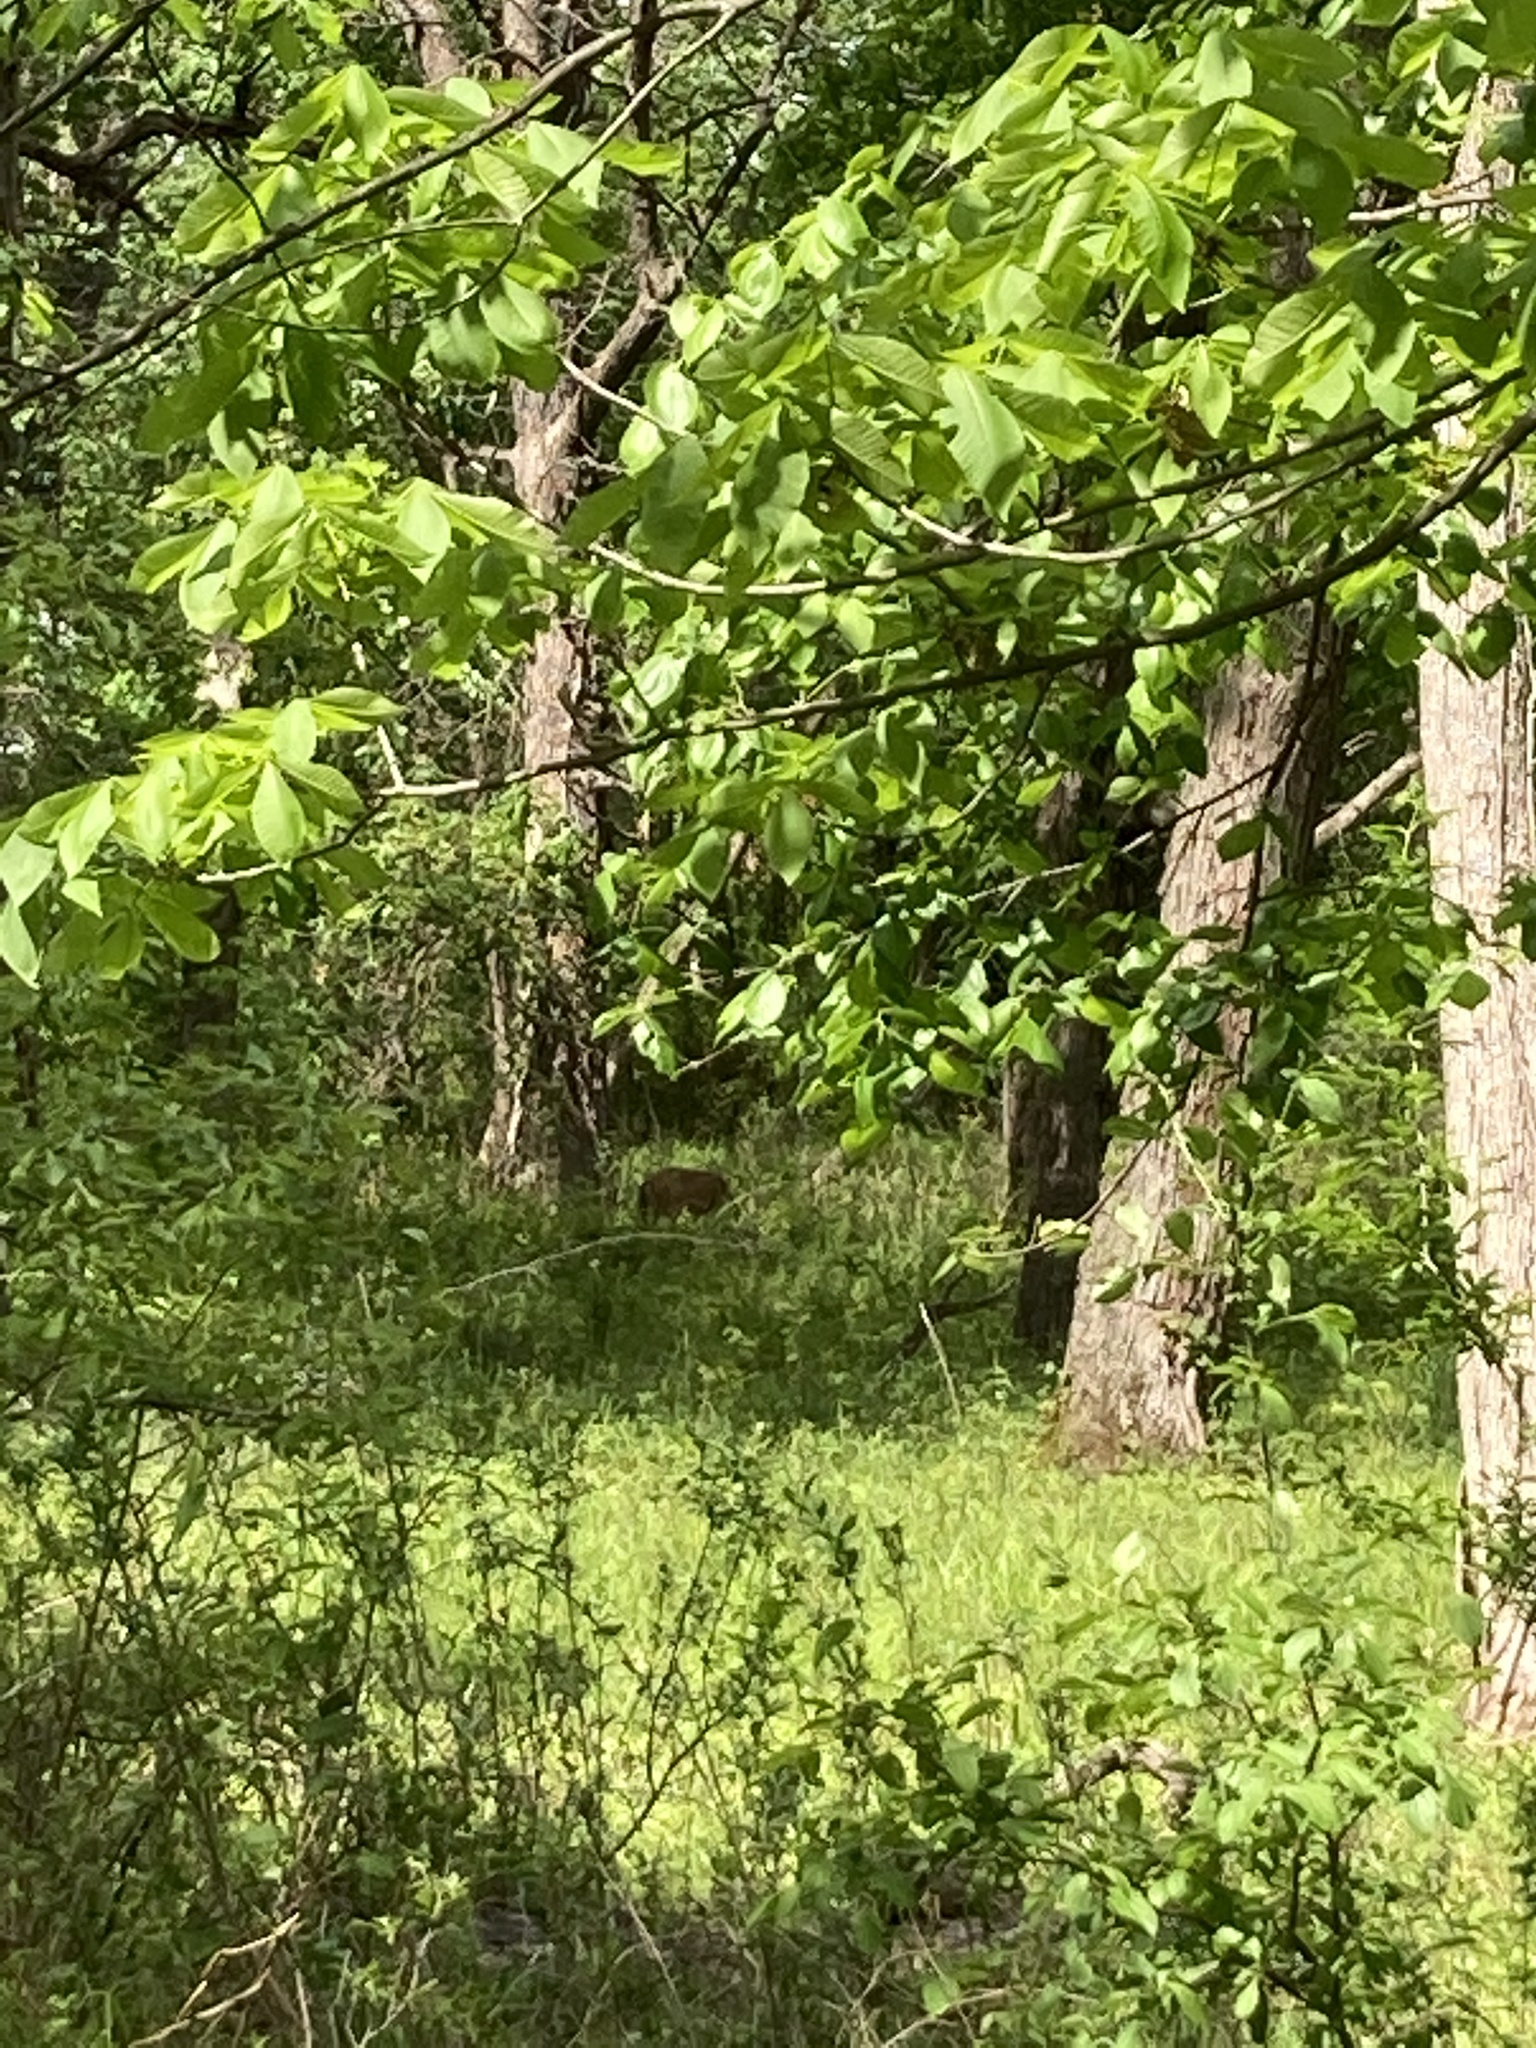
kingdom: Animalia
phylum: Chordata
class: Mammalia
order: Artiodactyla
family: Cervidae
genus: Odocoileus
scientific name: Odocoileus virginianus
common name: White-tailed deer
